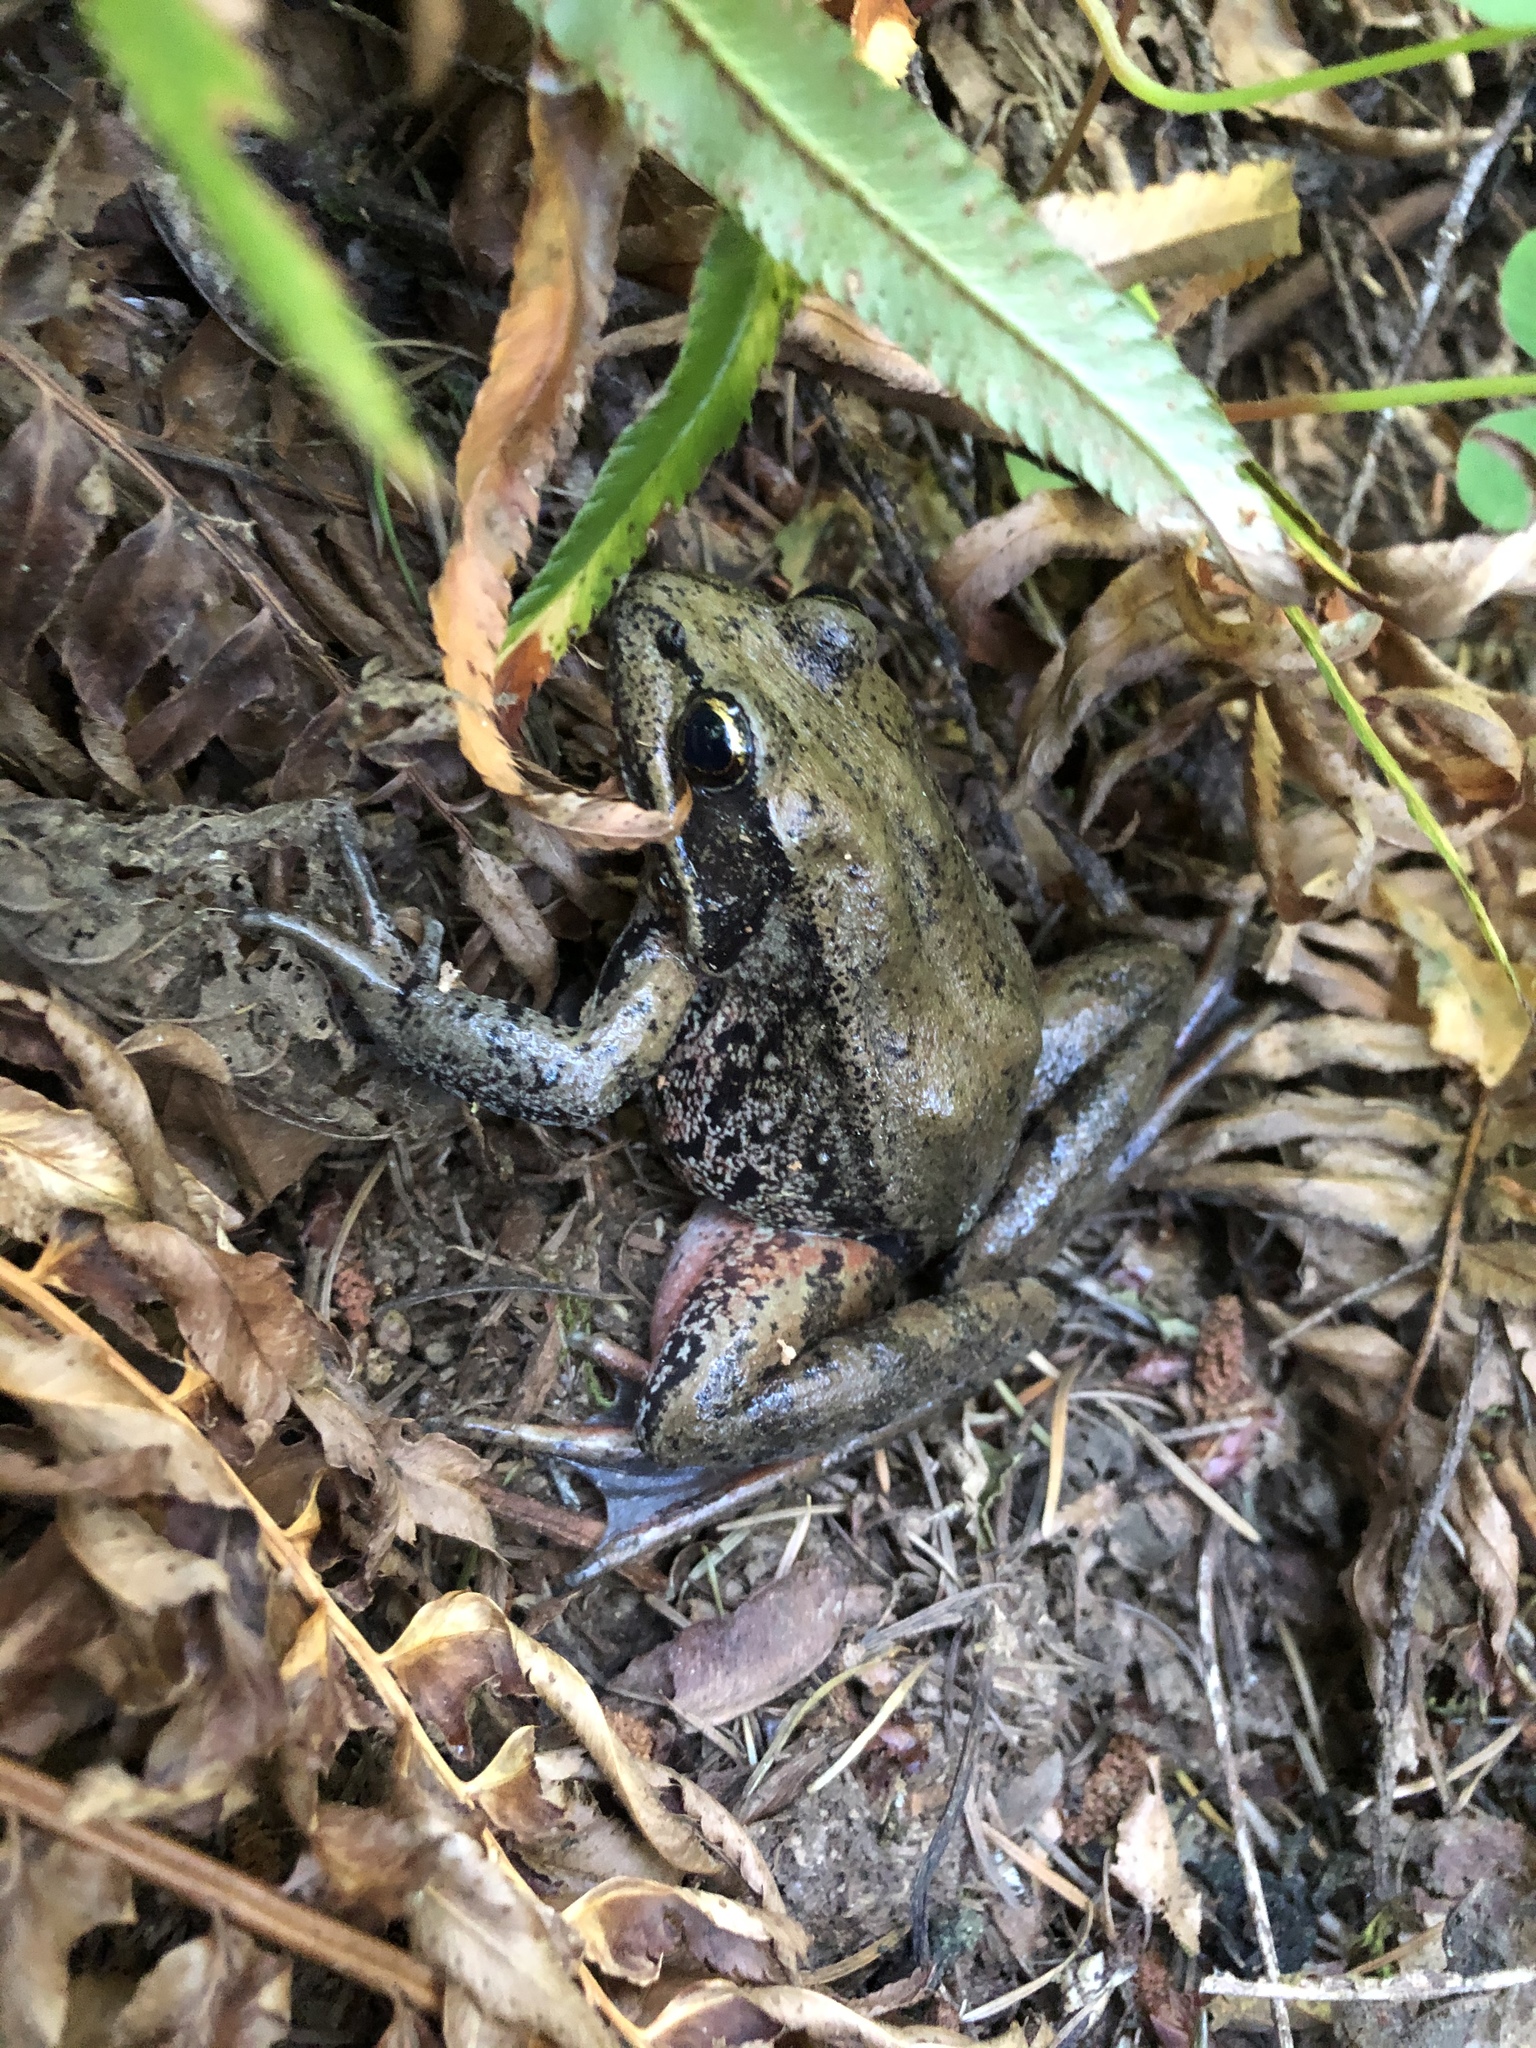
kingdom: Animalia
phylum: Chordata
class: Amphibia
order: Anura
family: Ranidae
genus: Rana
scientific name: Rana aurora
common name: Red-legged frog
